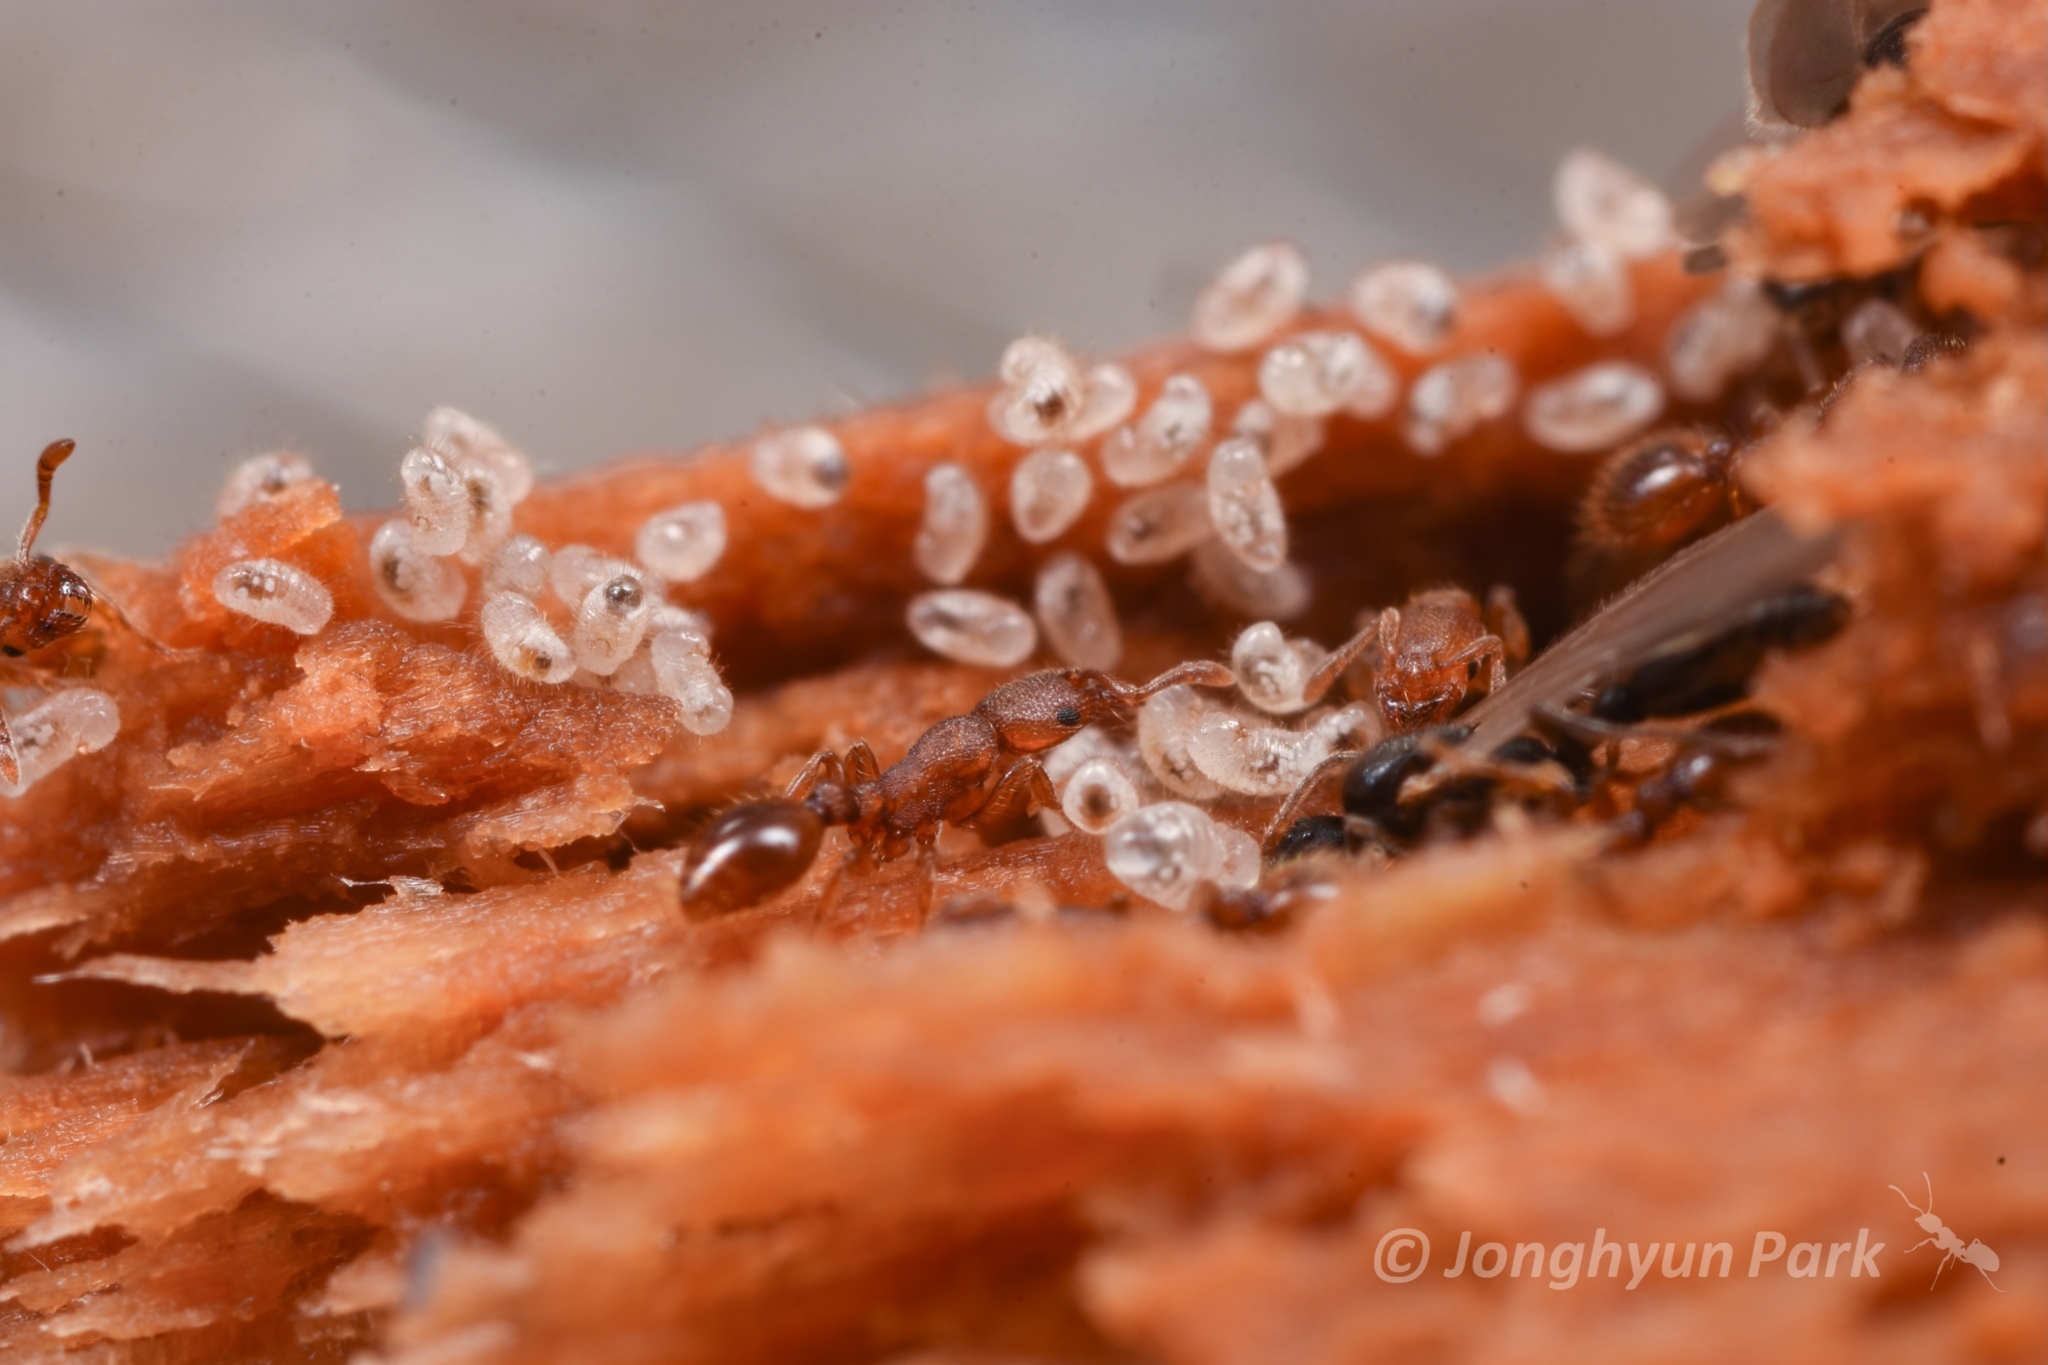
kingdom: Animalia
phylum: Arthropoda
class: Insecta
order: Hymenoptera
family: Formicidae
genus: Vollenhovia
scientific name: Vollenhovia emeryi
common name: Ant
